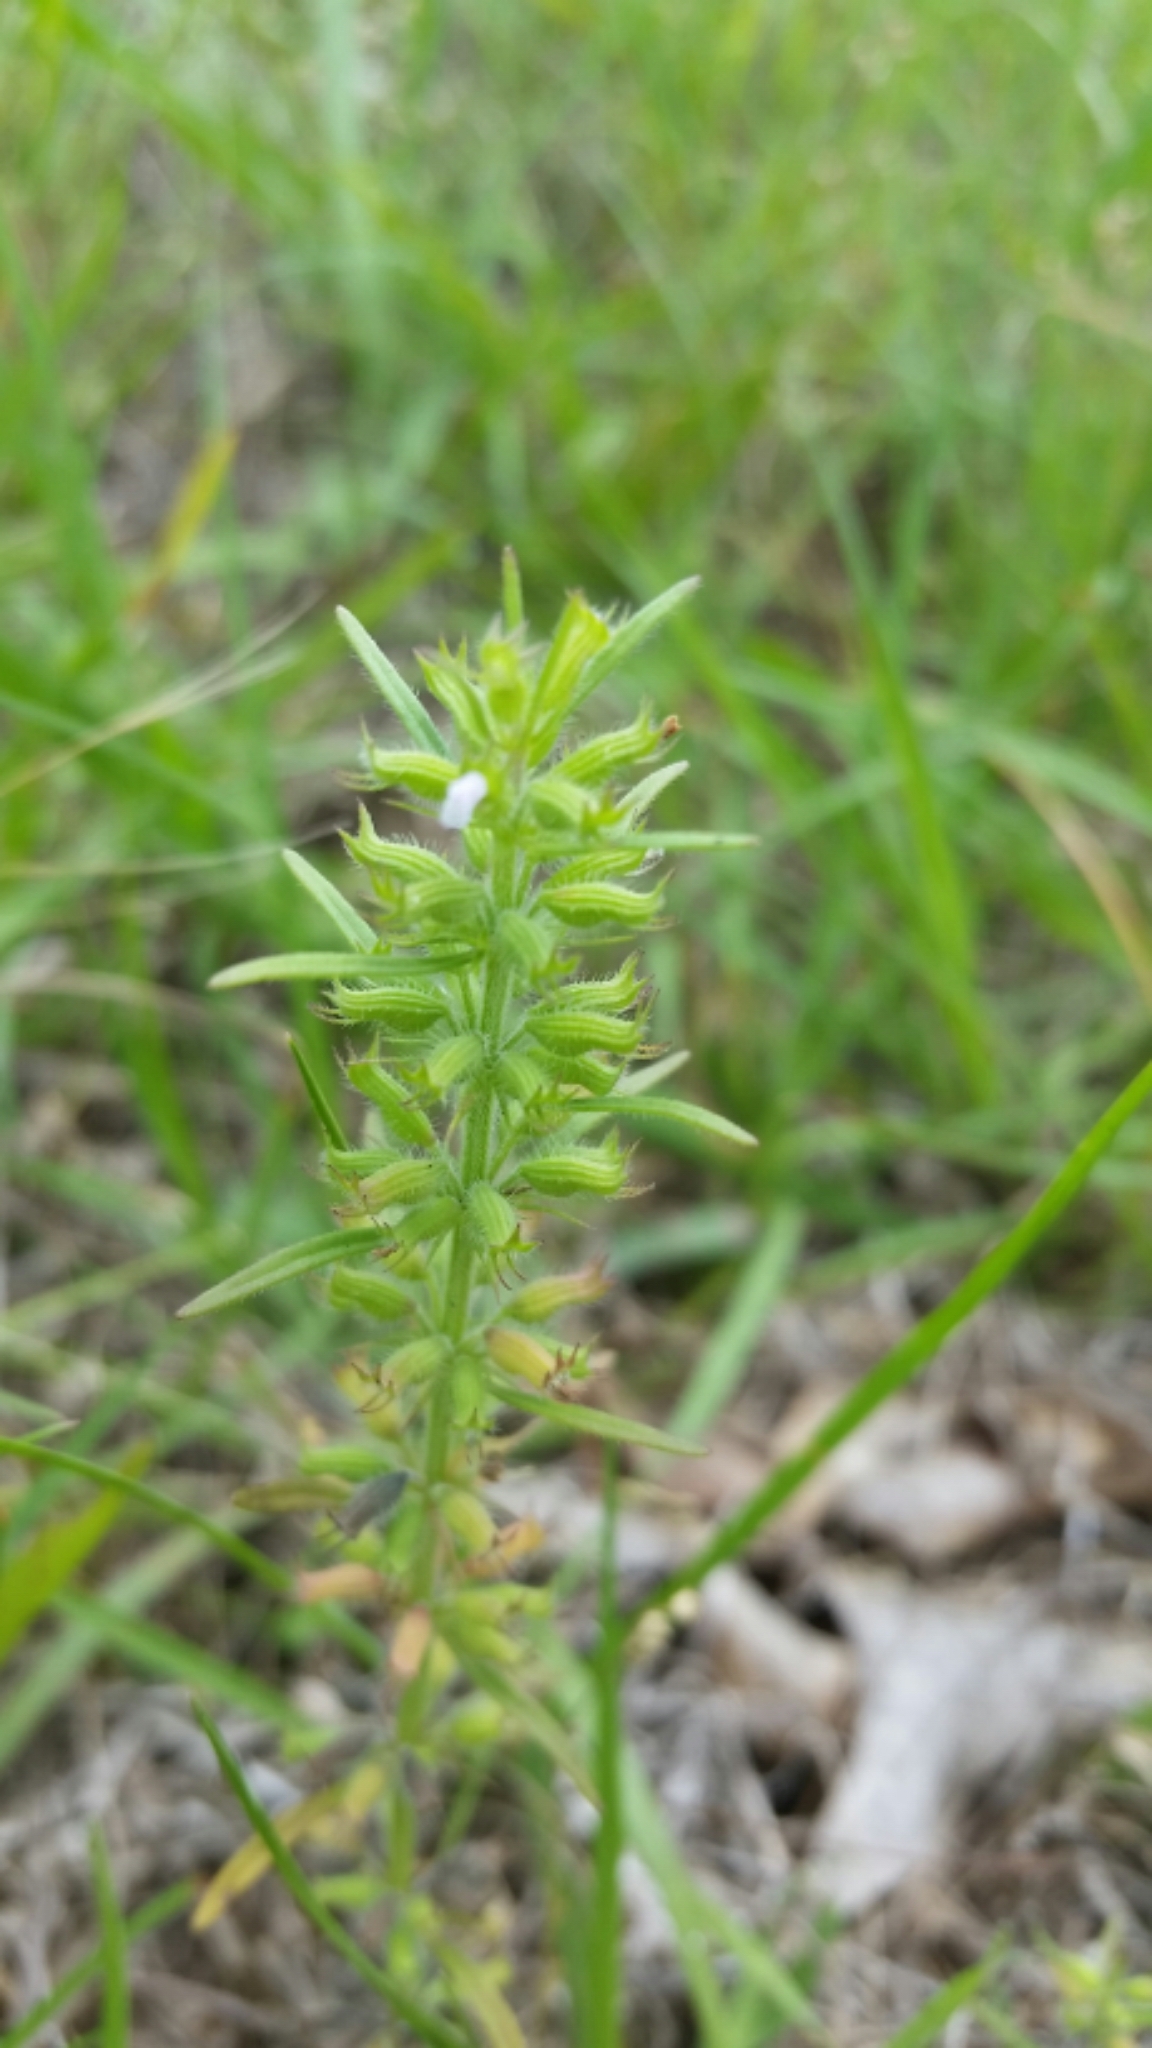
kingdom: Plantae
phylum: Tracheophyta
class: Magnoliopsida
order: Lamiales
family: Lamiaceae
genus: Hedeoma
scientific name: Hedeoma hispida
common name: Mock pennyroyal
